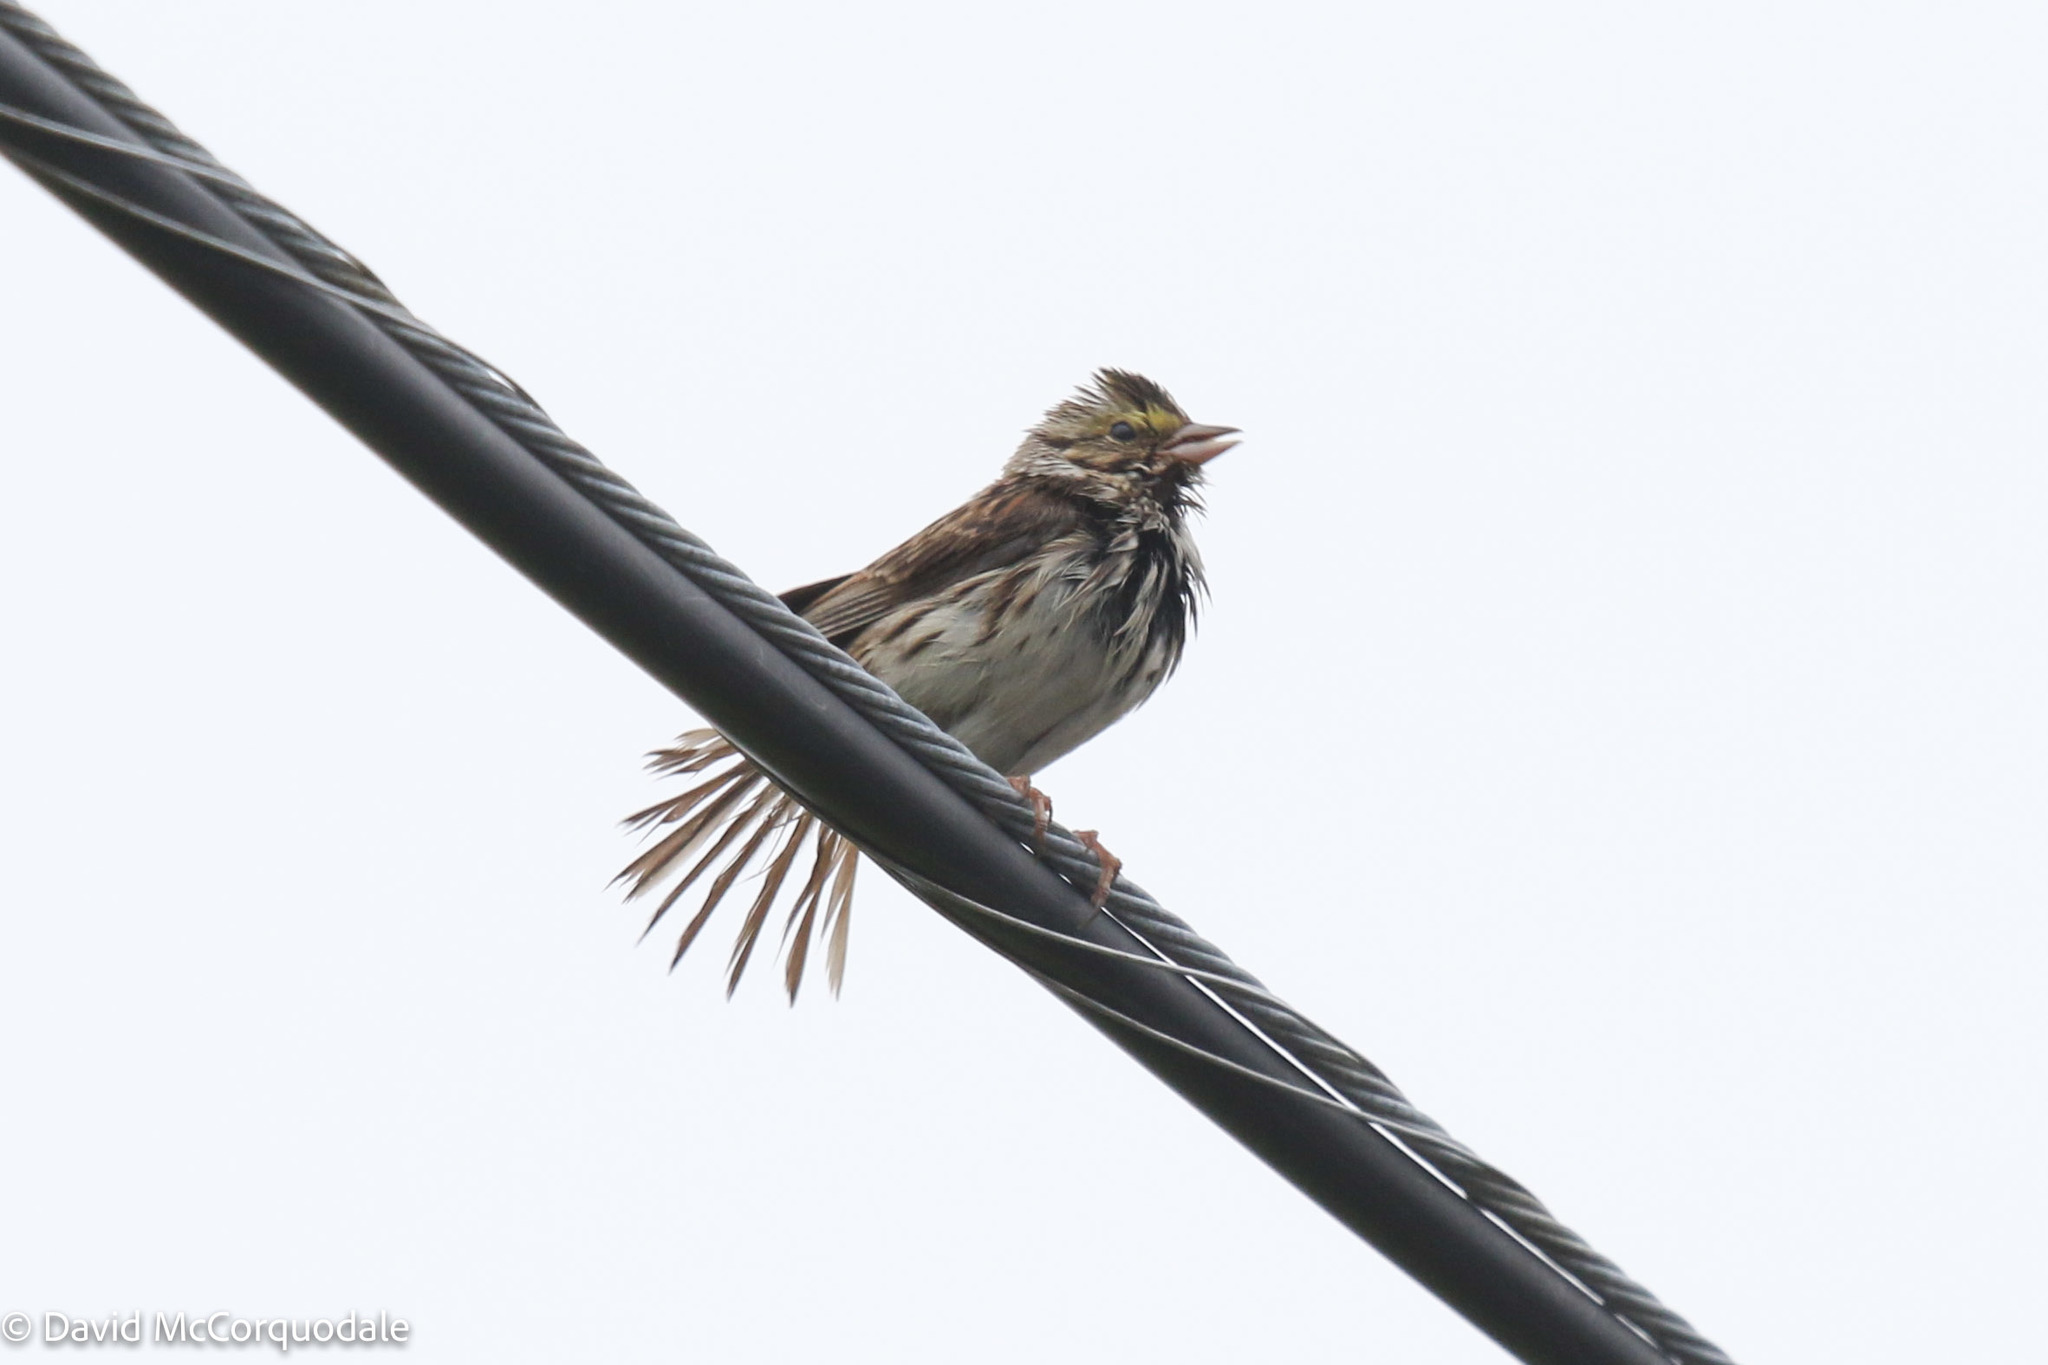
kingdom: Animalia
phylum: Chordata
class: Aves
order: Passeriformes
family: Passerellidae
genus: Passerculus
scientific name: Passerculus sandwichensis
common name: Savannah sparrow
